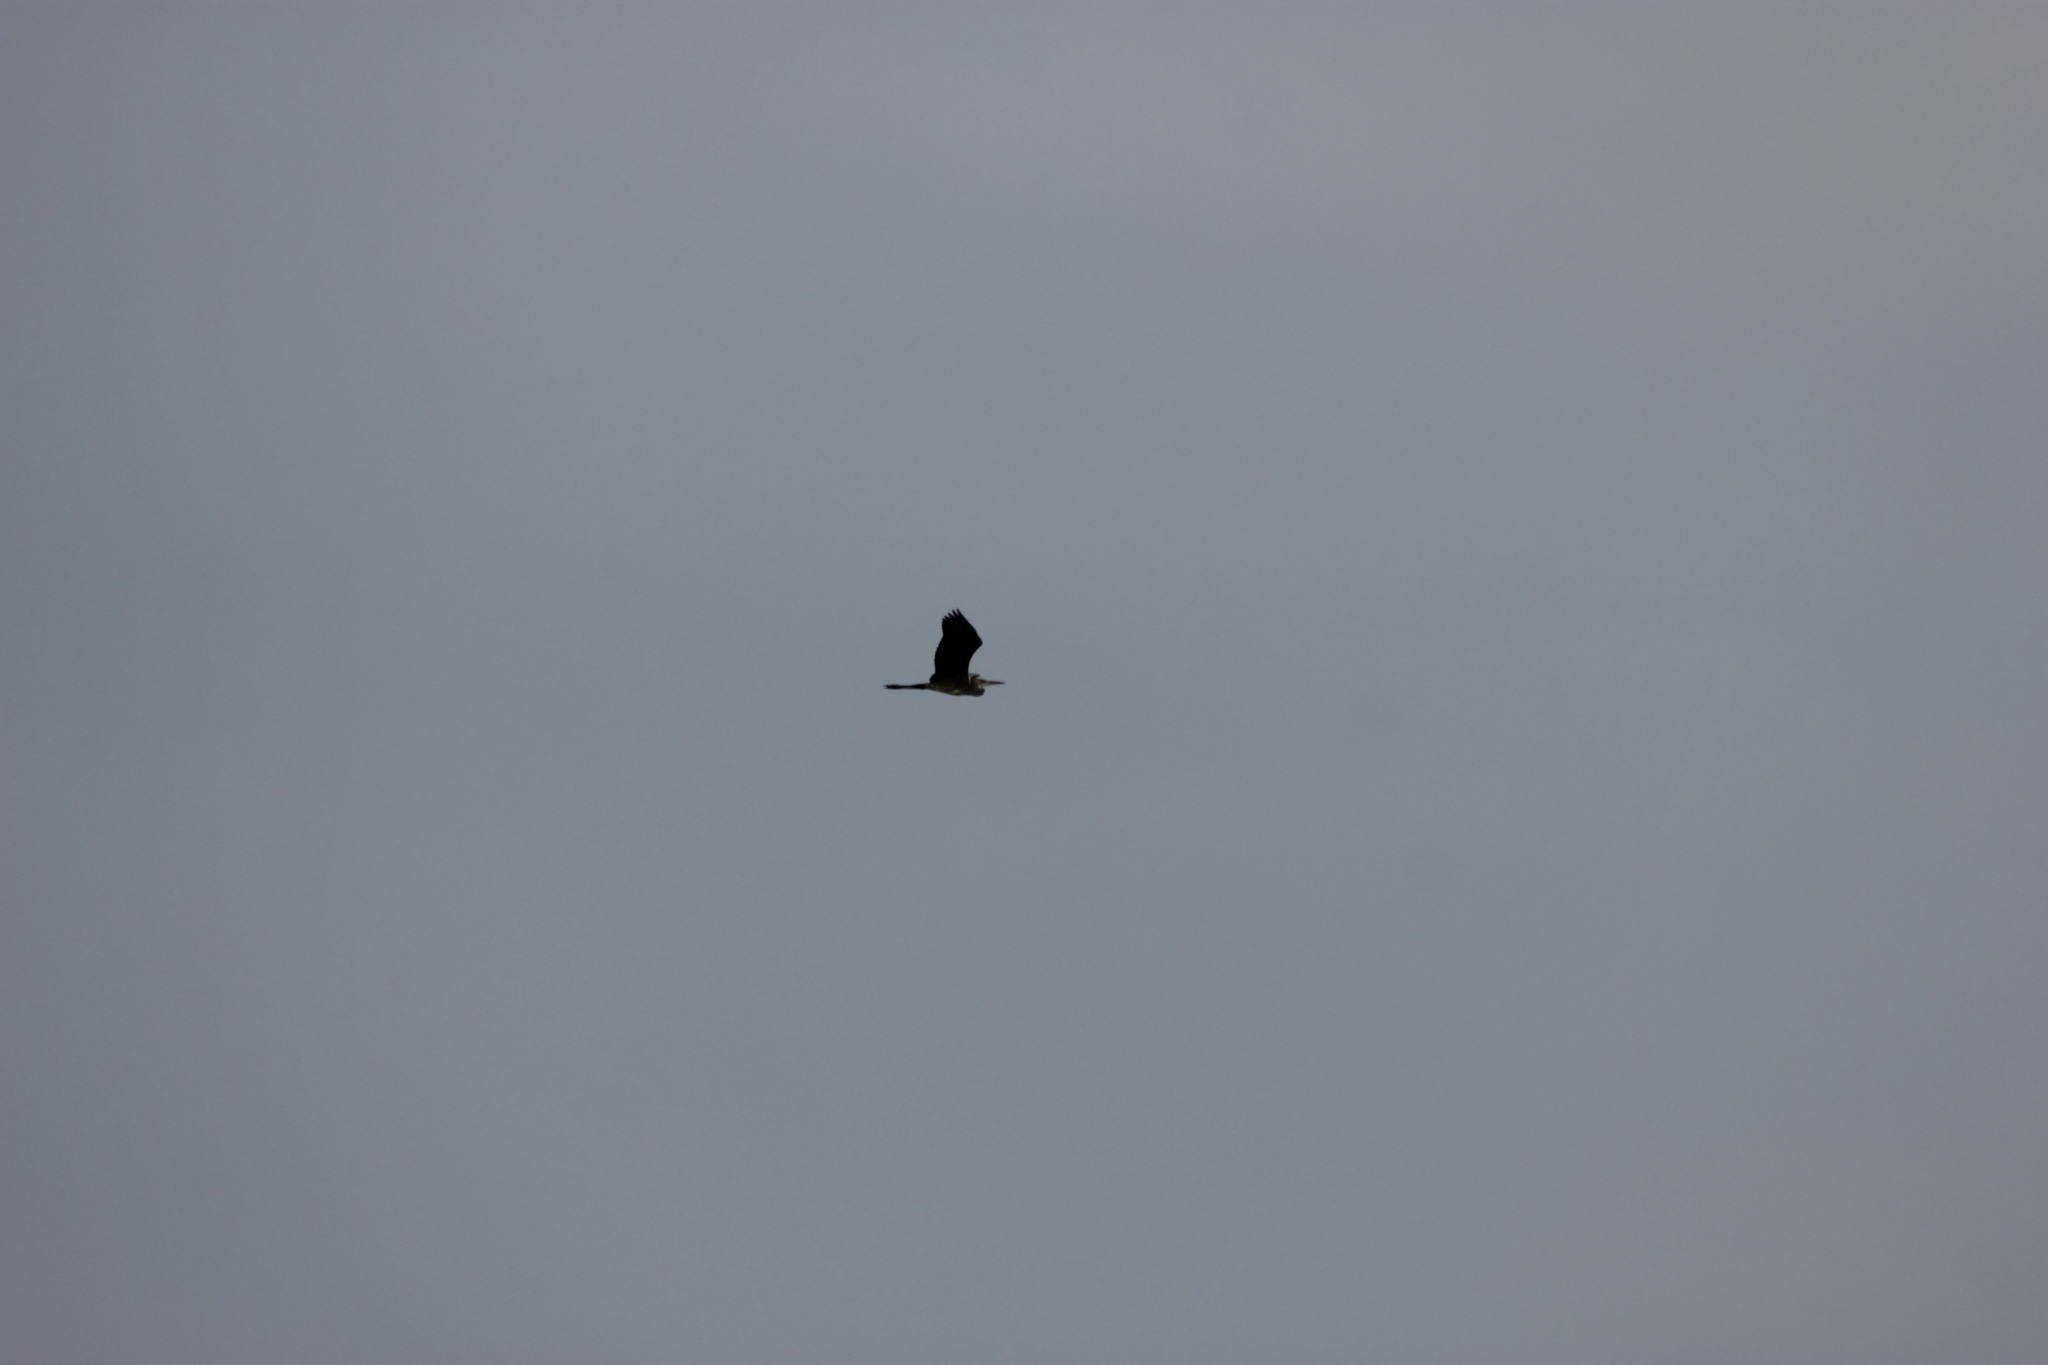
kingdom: Animalia
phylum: Chordata
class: Aves
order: Pelecaniformes
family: Ardeidae
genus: Ardea
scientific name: Ardea cinerea
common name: Grey heron
